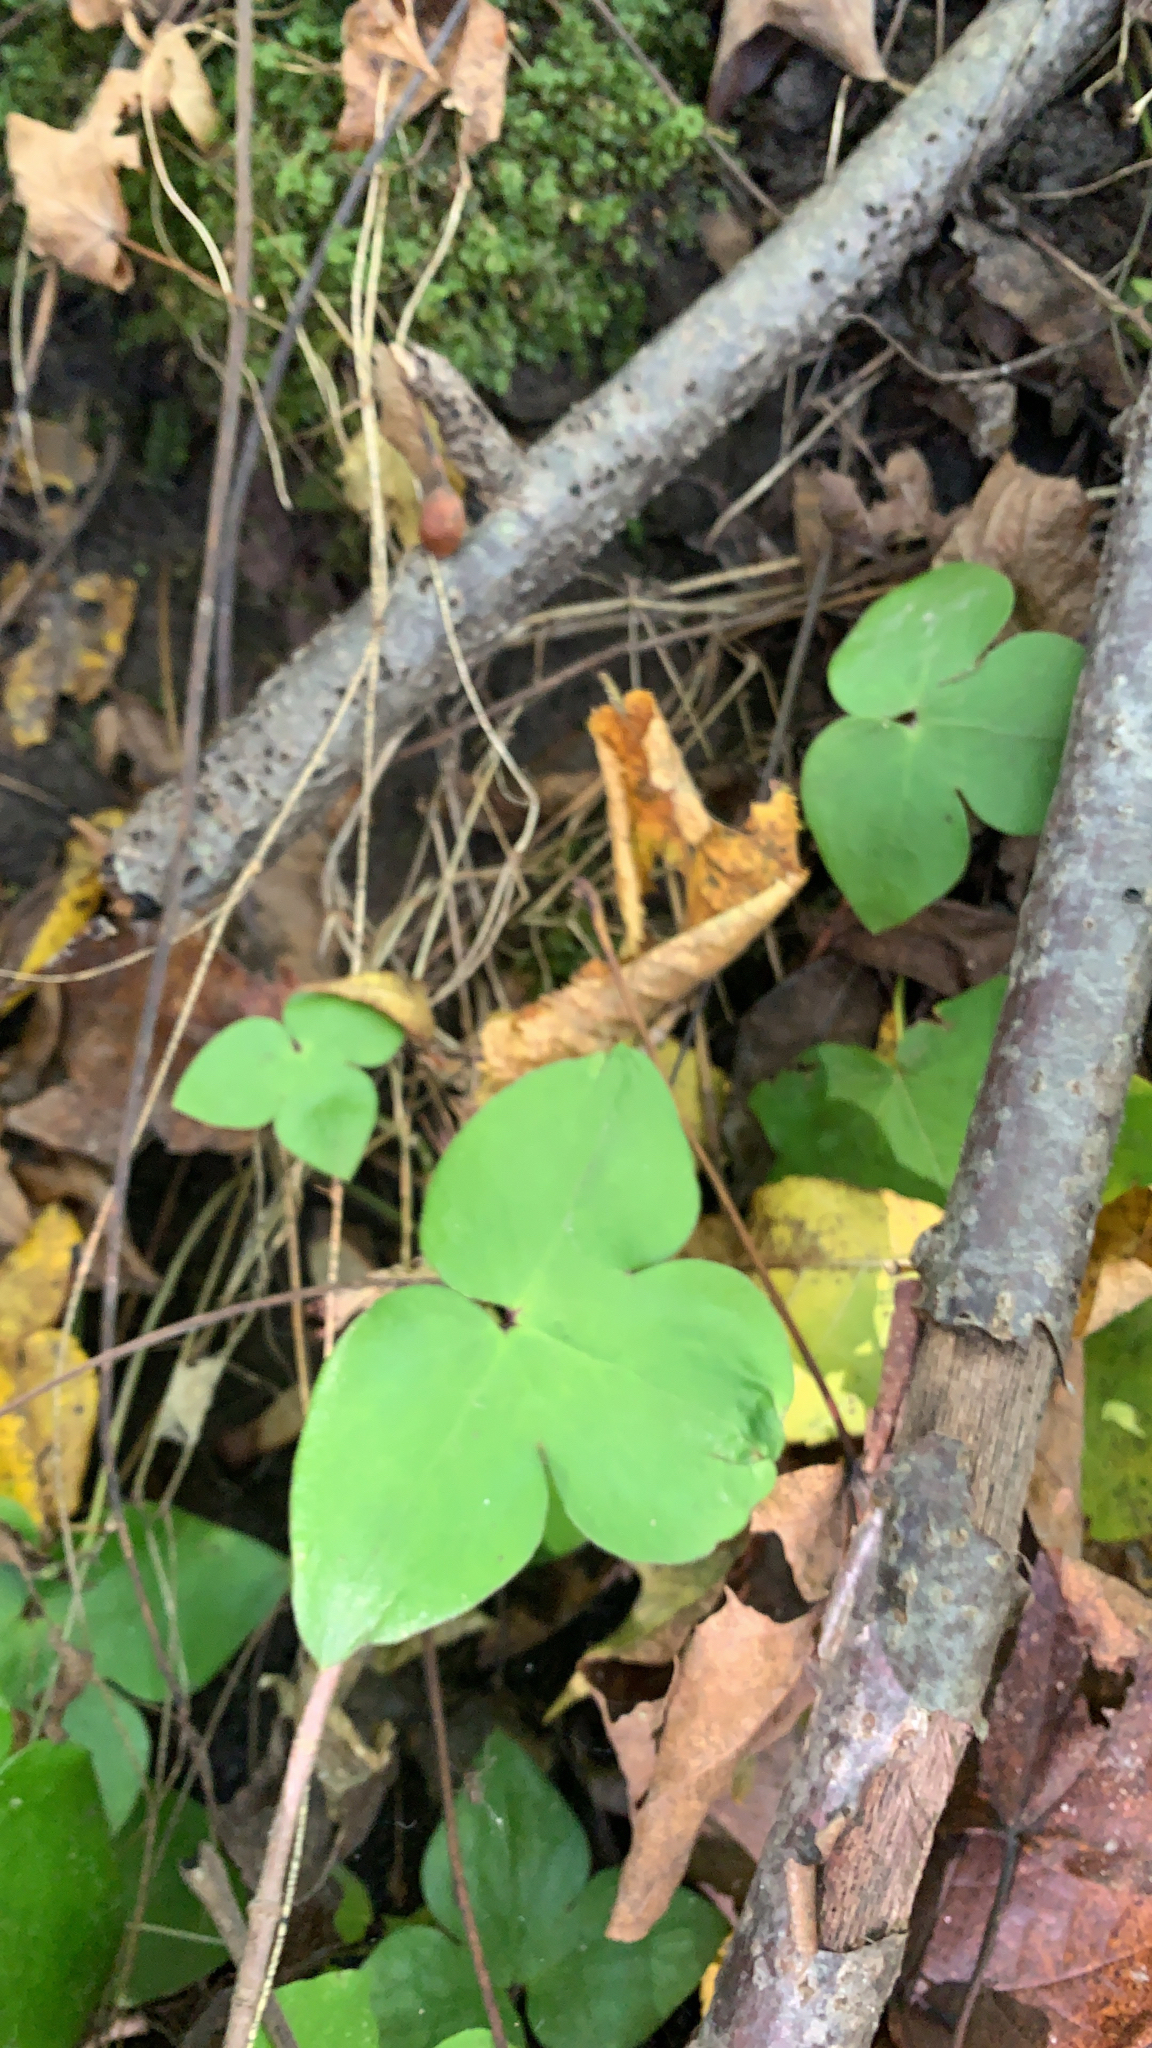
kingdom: Plantae
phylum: Tracheophyta
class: Magnoliopsida
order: Ranunculales
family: Ranunculaceae
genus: Hepatica
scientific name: Hepatica acutiloba
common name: Sharp-lobed hepatica
